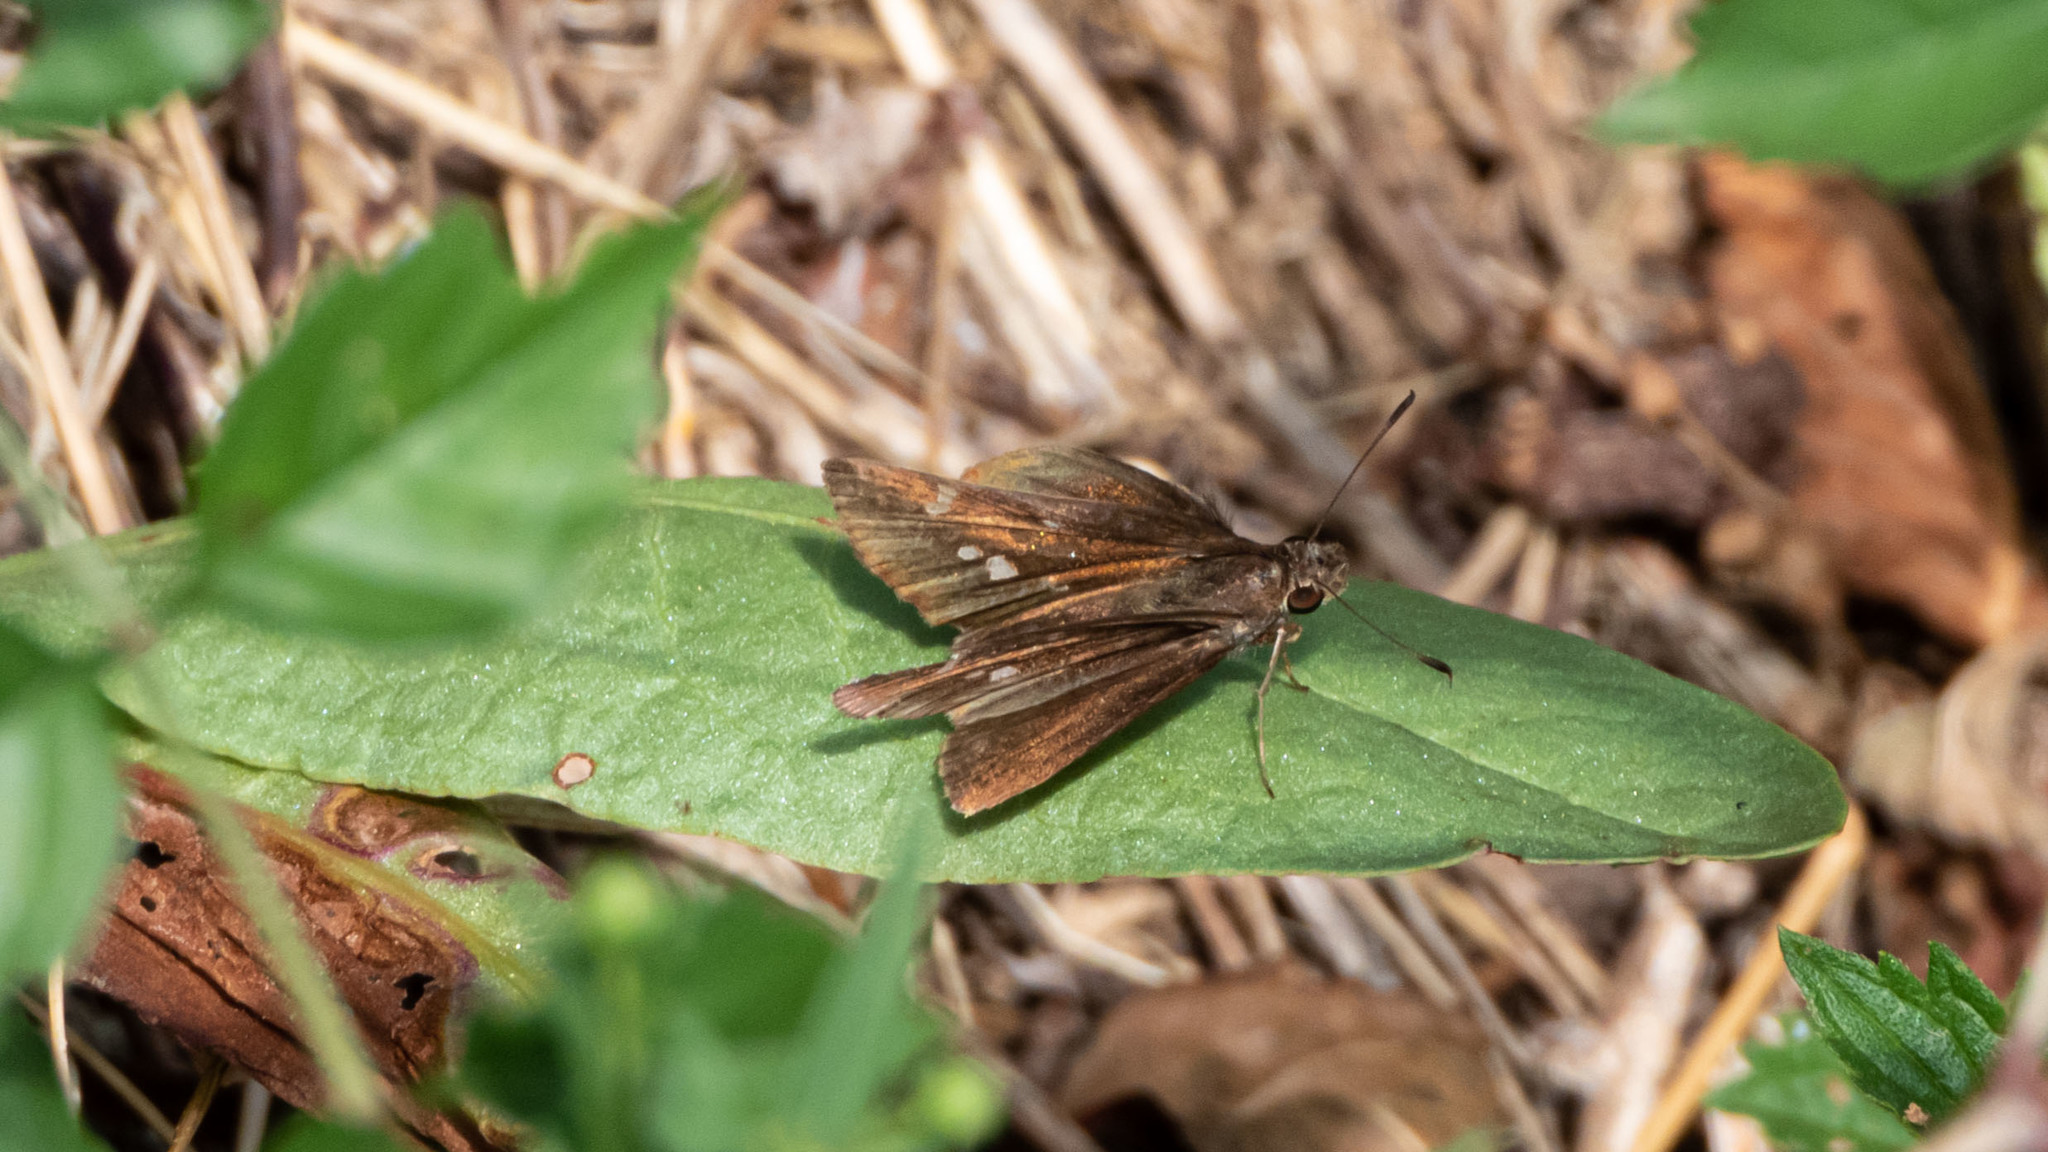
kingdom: Animalia
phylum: Arthropoda
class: Insecta
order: Lepidoptera
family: Hesperiidae
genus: Lerema
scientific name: Lerema accius
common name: Clouded skipper
